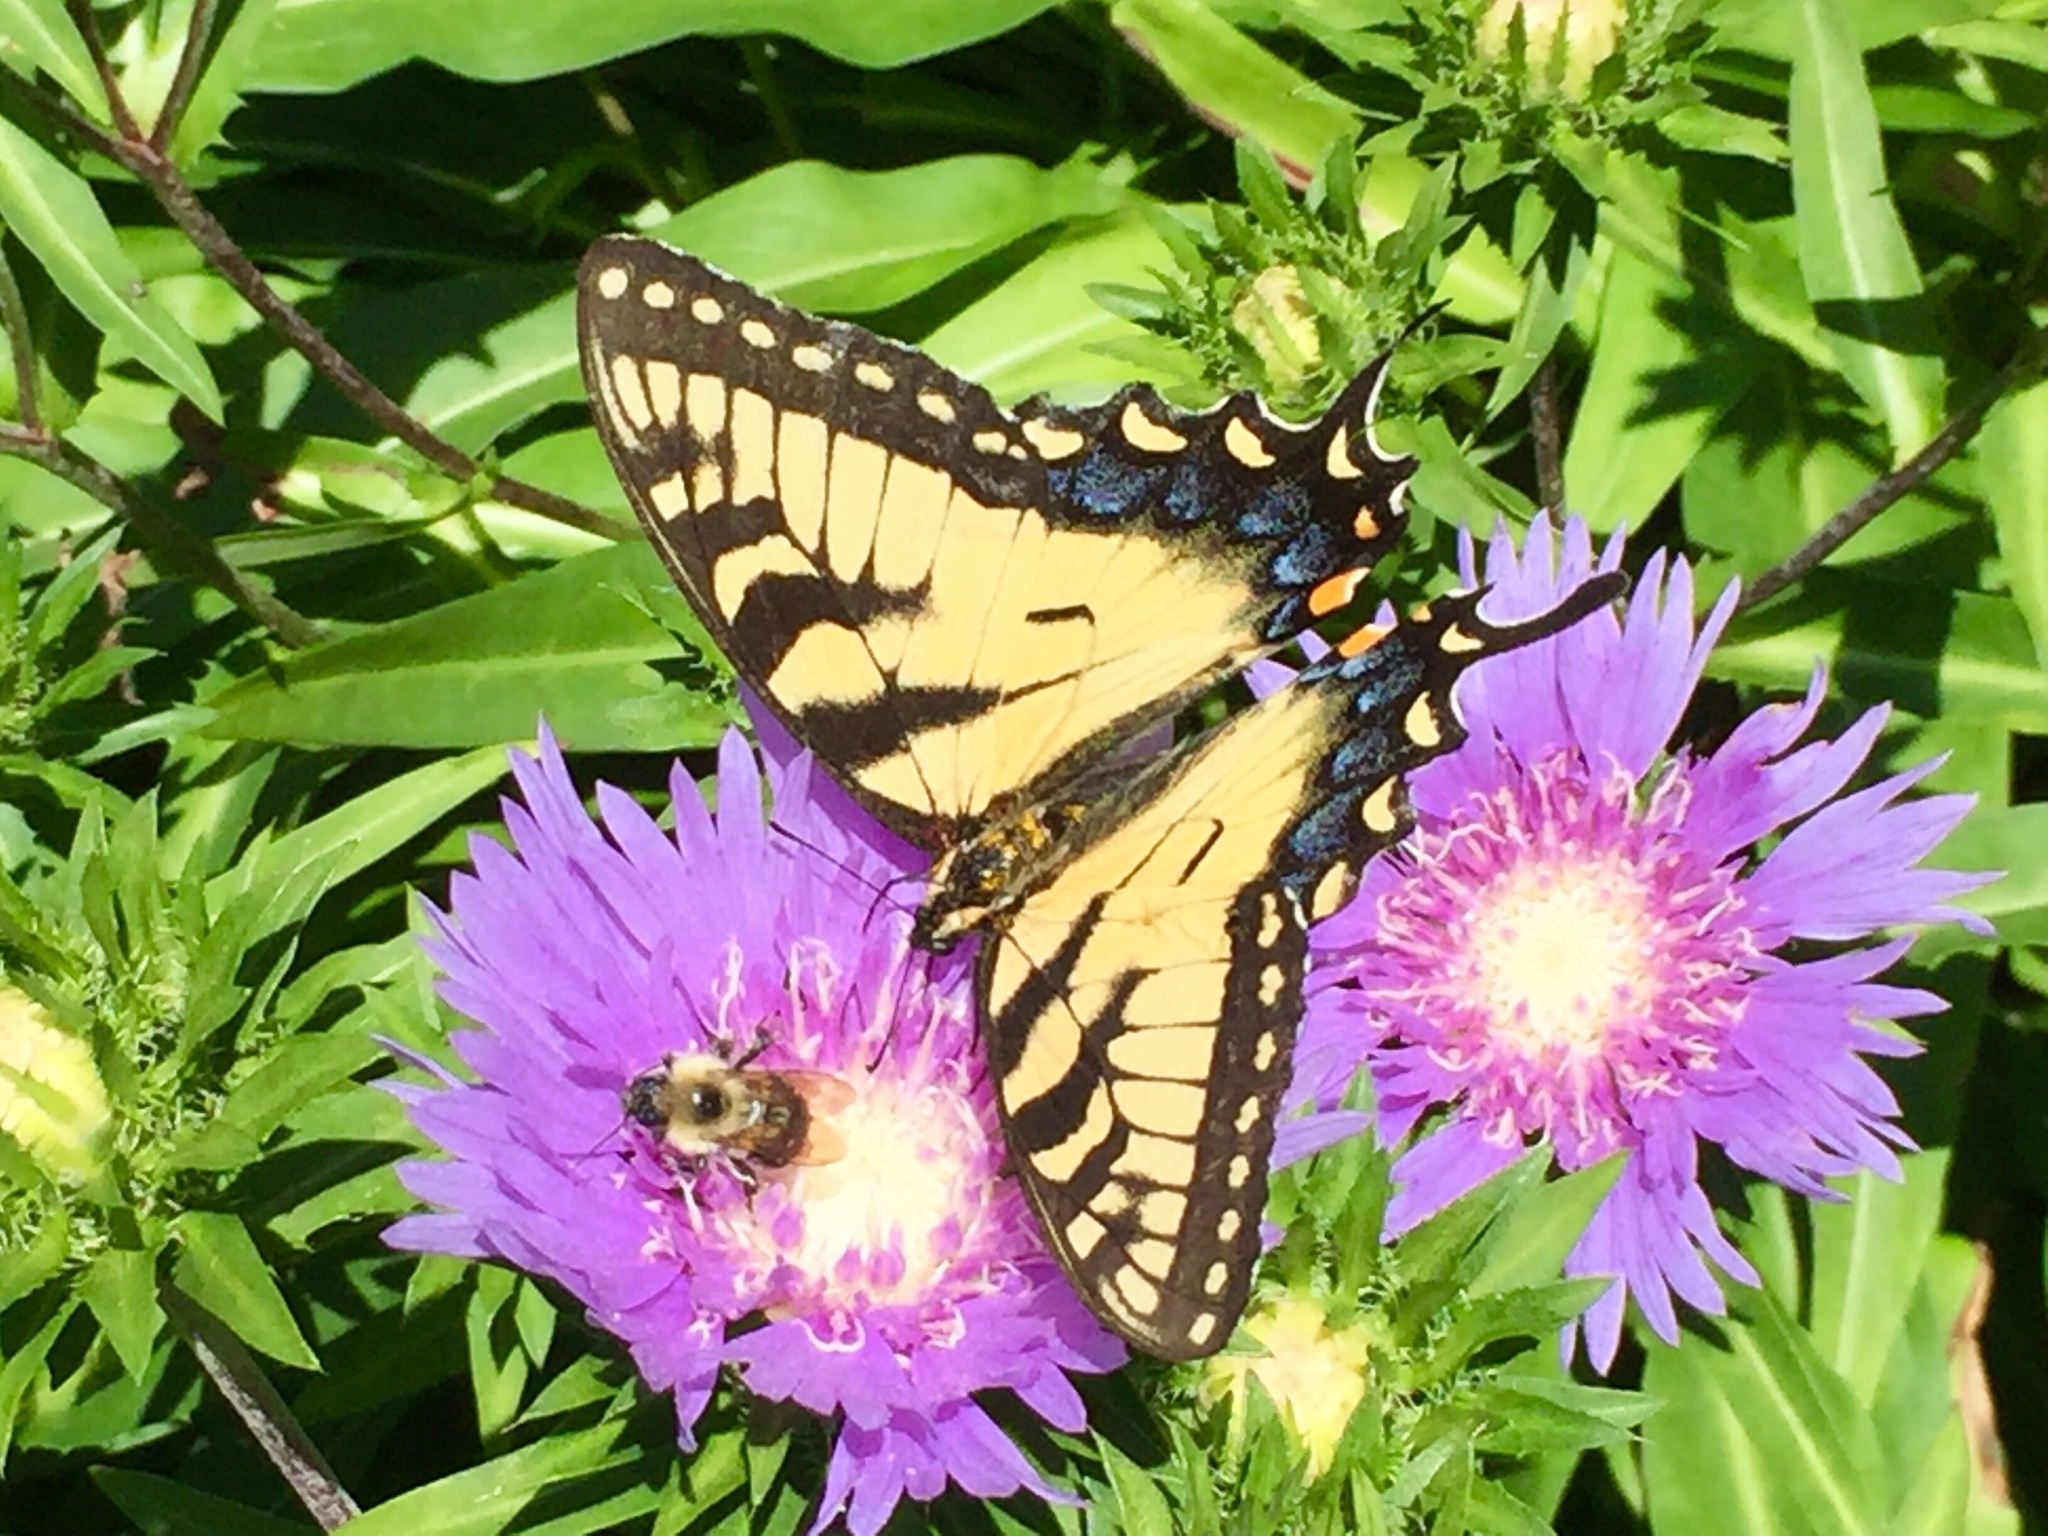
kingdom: Animalia
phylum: Arthropoda
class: Insecta
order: Lepidoptera
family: Papilionidae
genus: Papilio
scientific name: Papilio glaucus
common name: Tiger swallowtail
